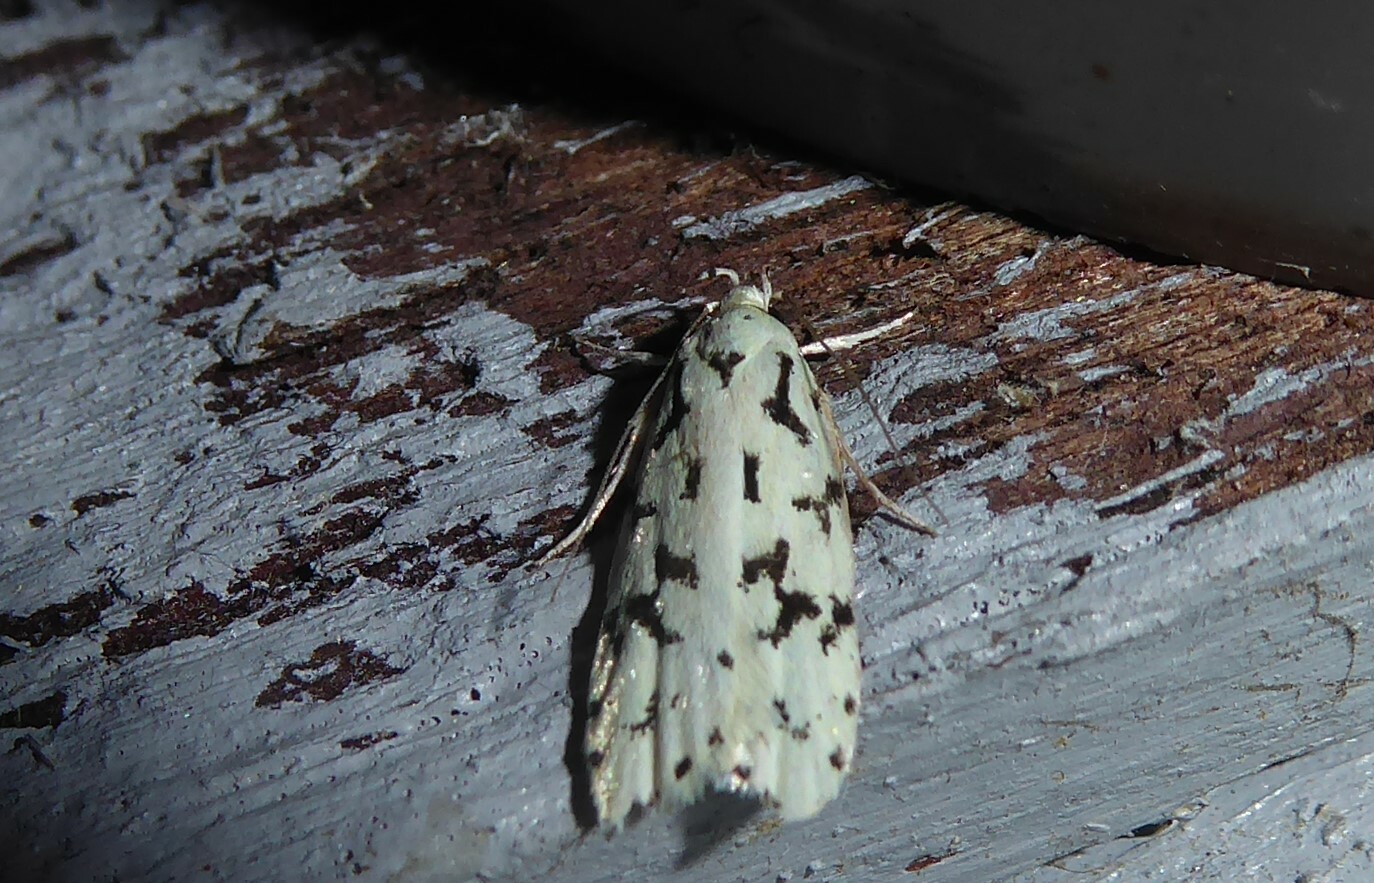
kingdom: Animalia
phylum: Arthropoda
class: Insecta
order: Lepidoptera
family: Oecophoridae
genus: Izatha
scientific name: Izatha huttoni
